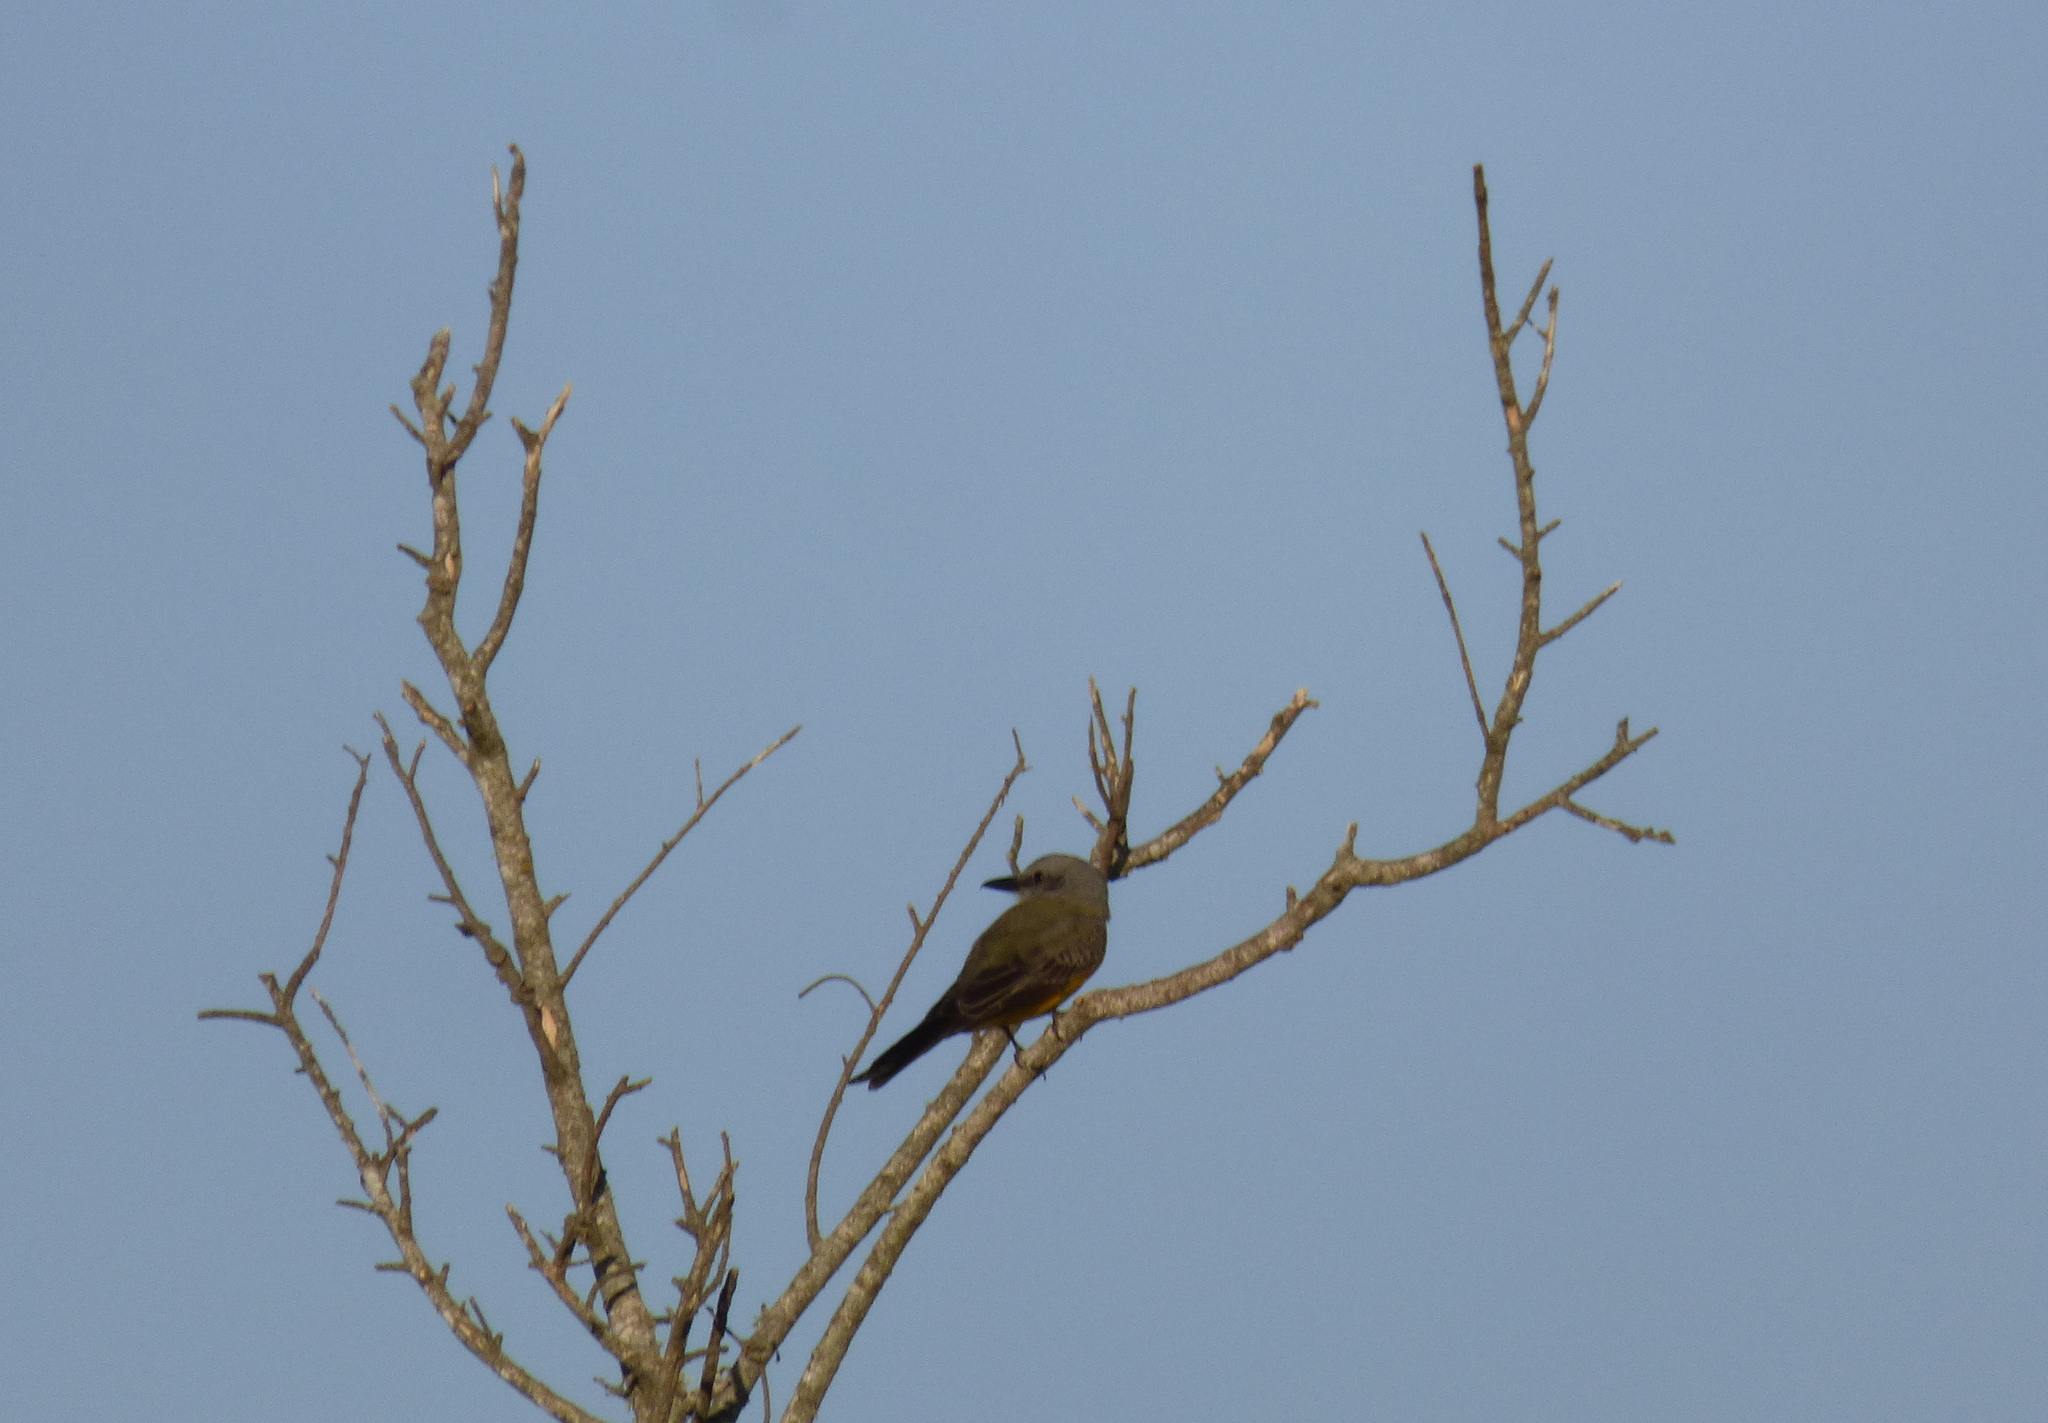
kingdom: Animalia
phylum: Chordata
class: Aves
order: Passeriformes
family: Tyrannidae
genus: Tyrannus
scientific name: Tyrannus melancholicus
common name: Tropical kingbird
